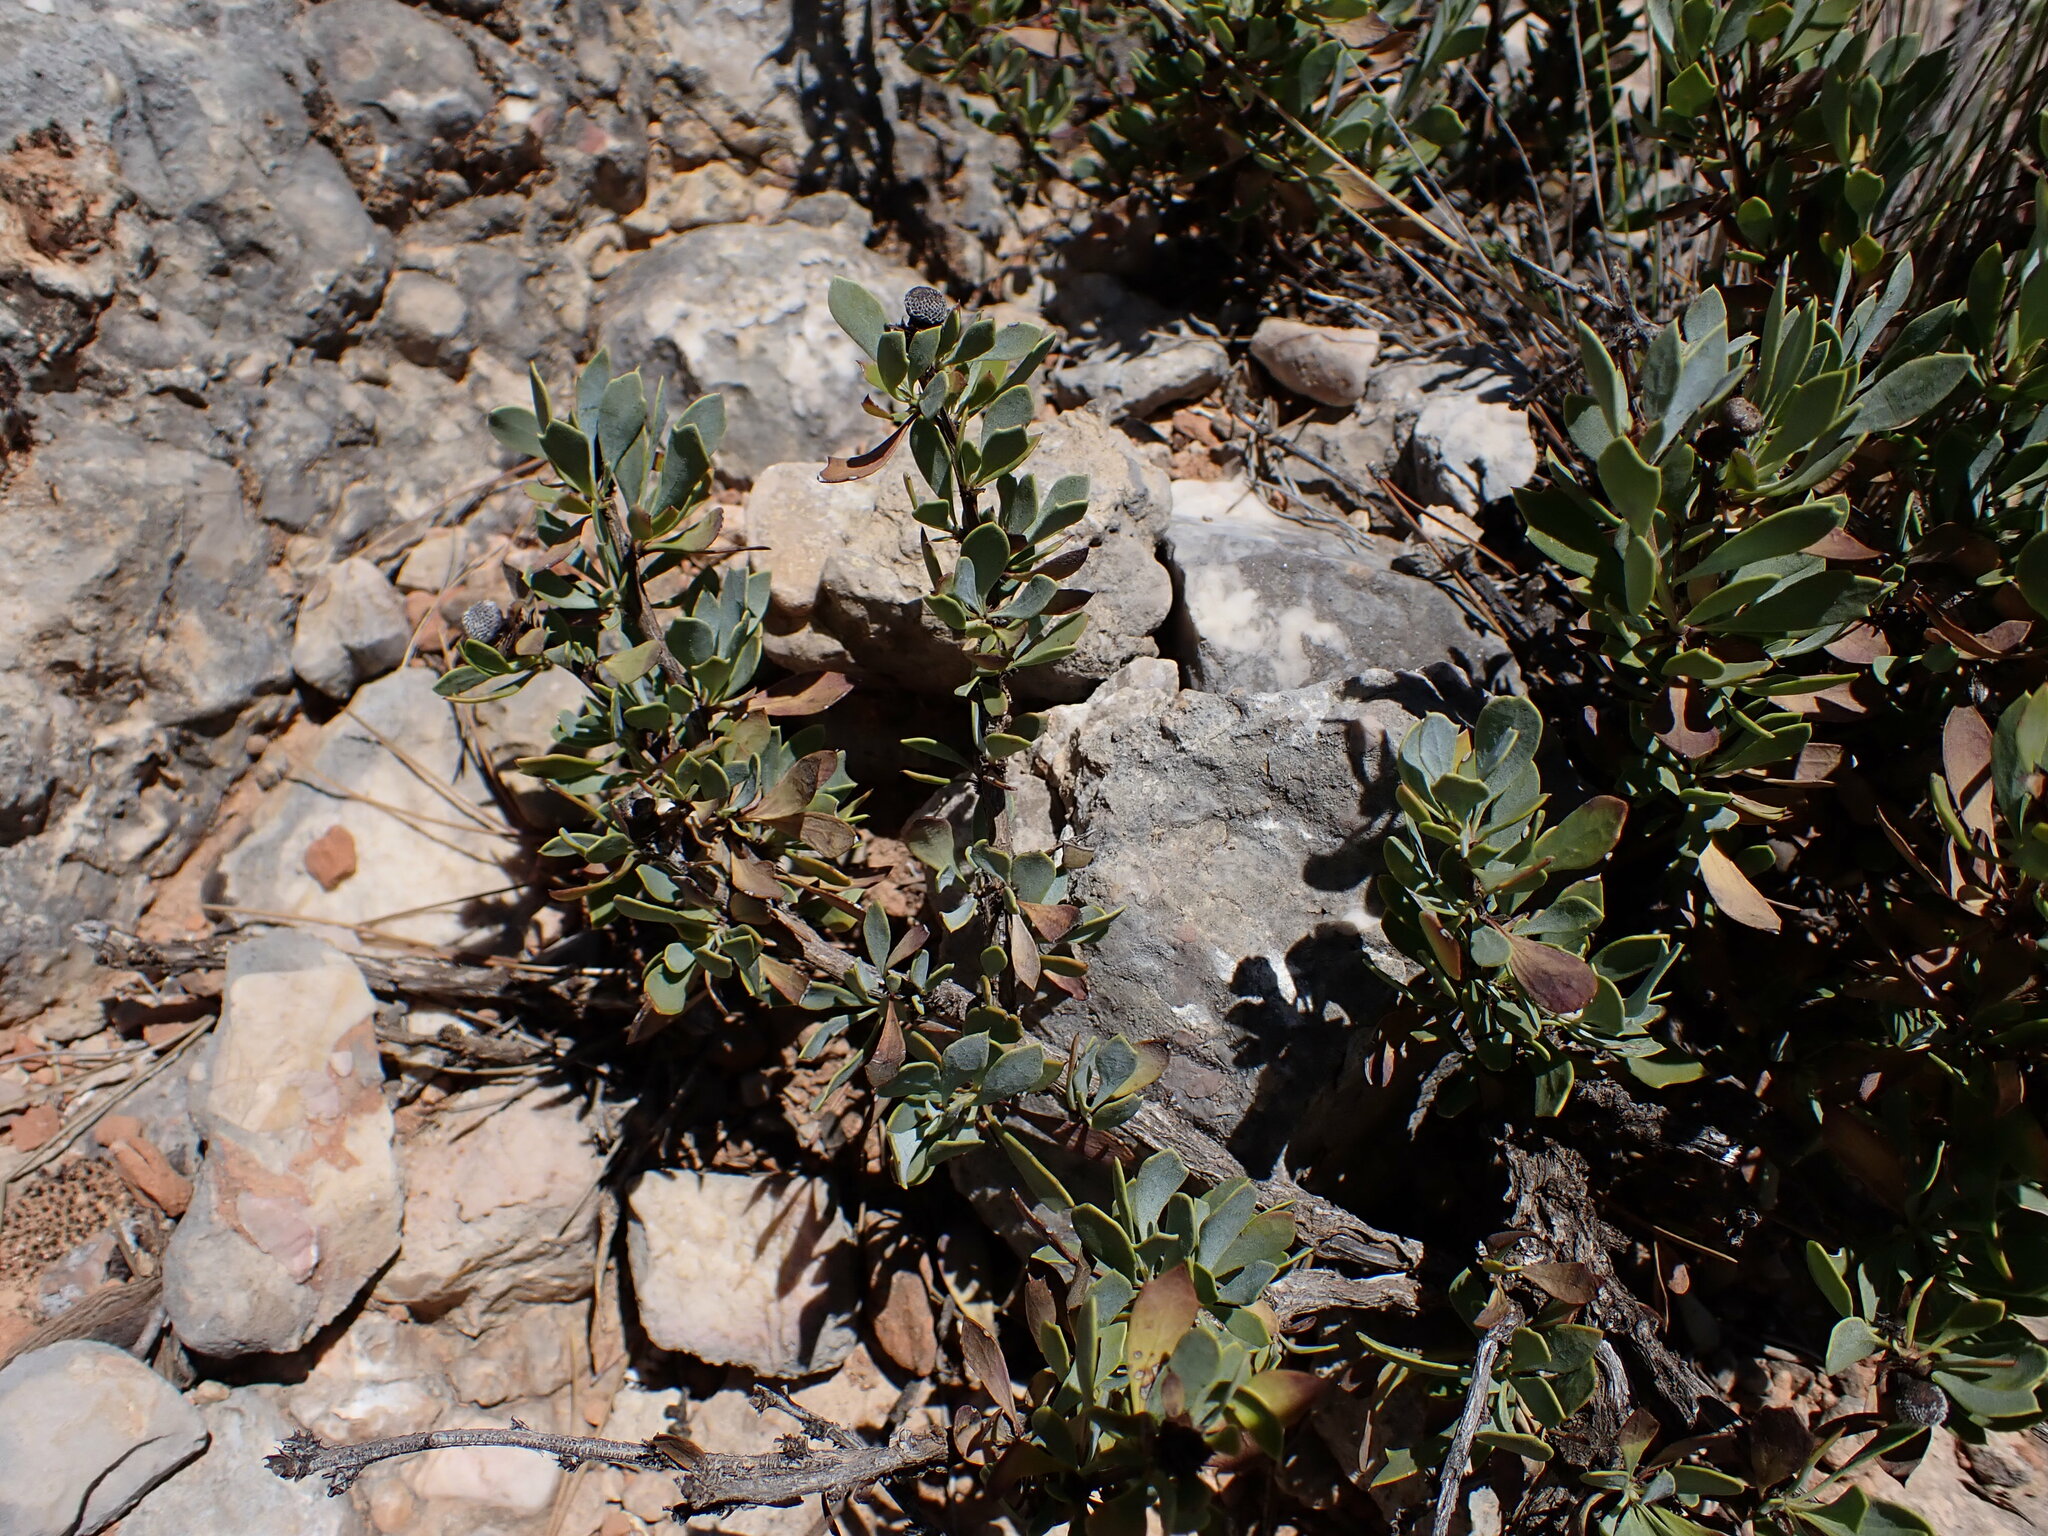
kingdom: Plantae
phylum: Tracheophyta
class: Magnoliopsida
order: Lamiales
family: Plantaginaceae
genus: Globularia
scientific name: Globularia alypum
